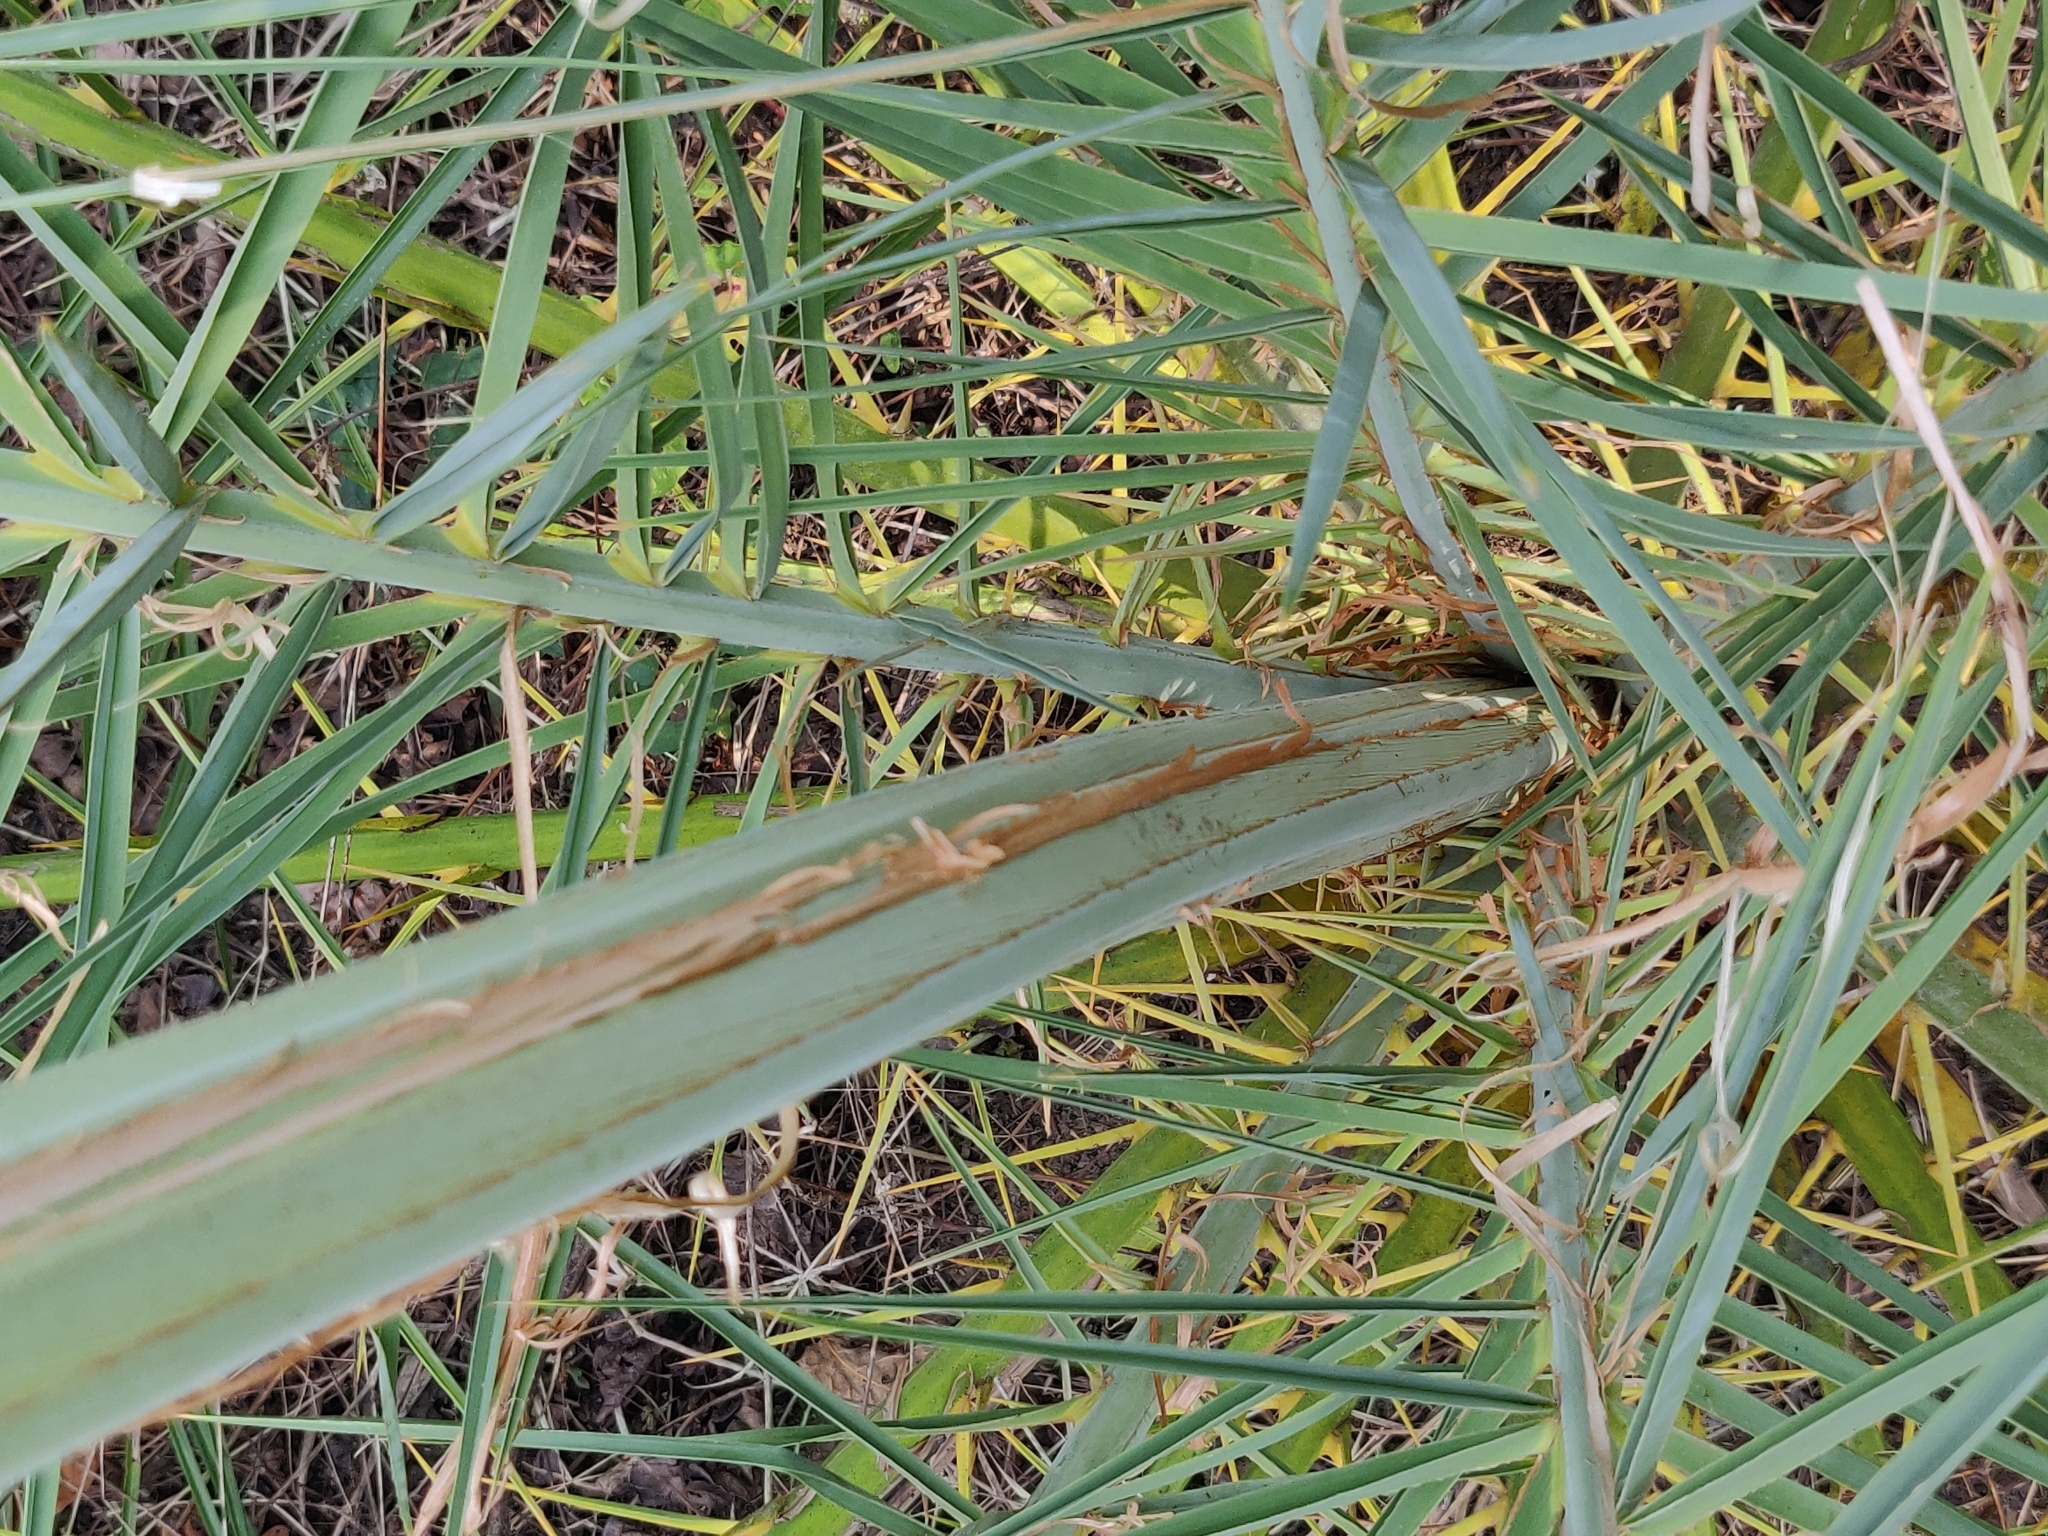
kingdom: Plantae
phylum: Tracheophyta
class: Liliopsida
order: Arecales
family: Arecaceae
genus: Phoenix
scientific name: Phoenix sylvestris
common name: Wild date palm
